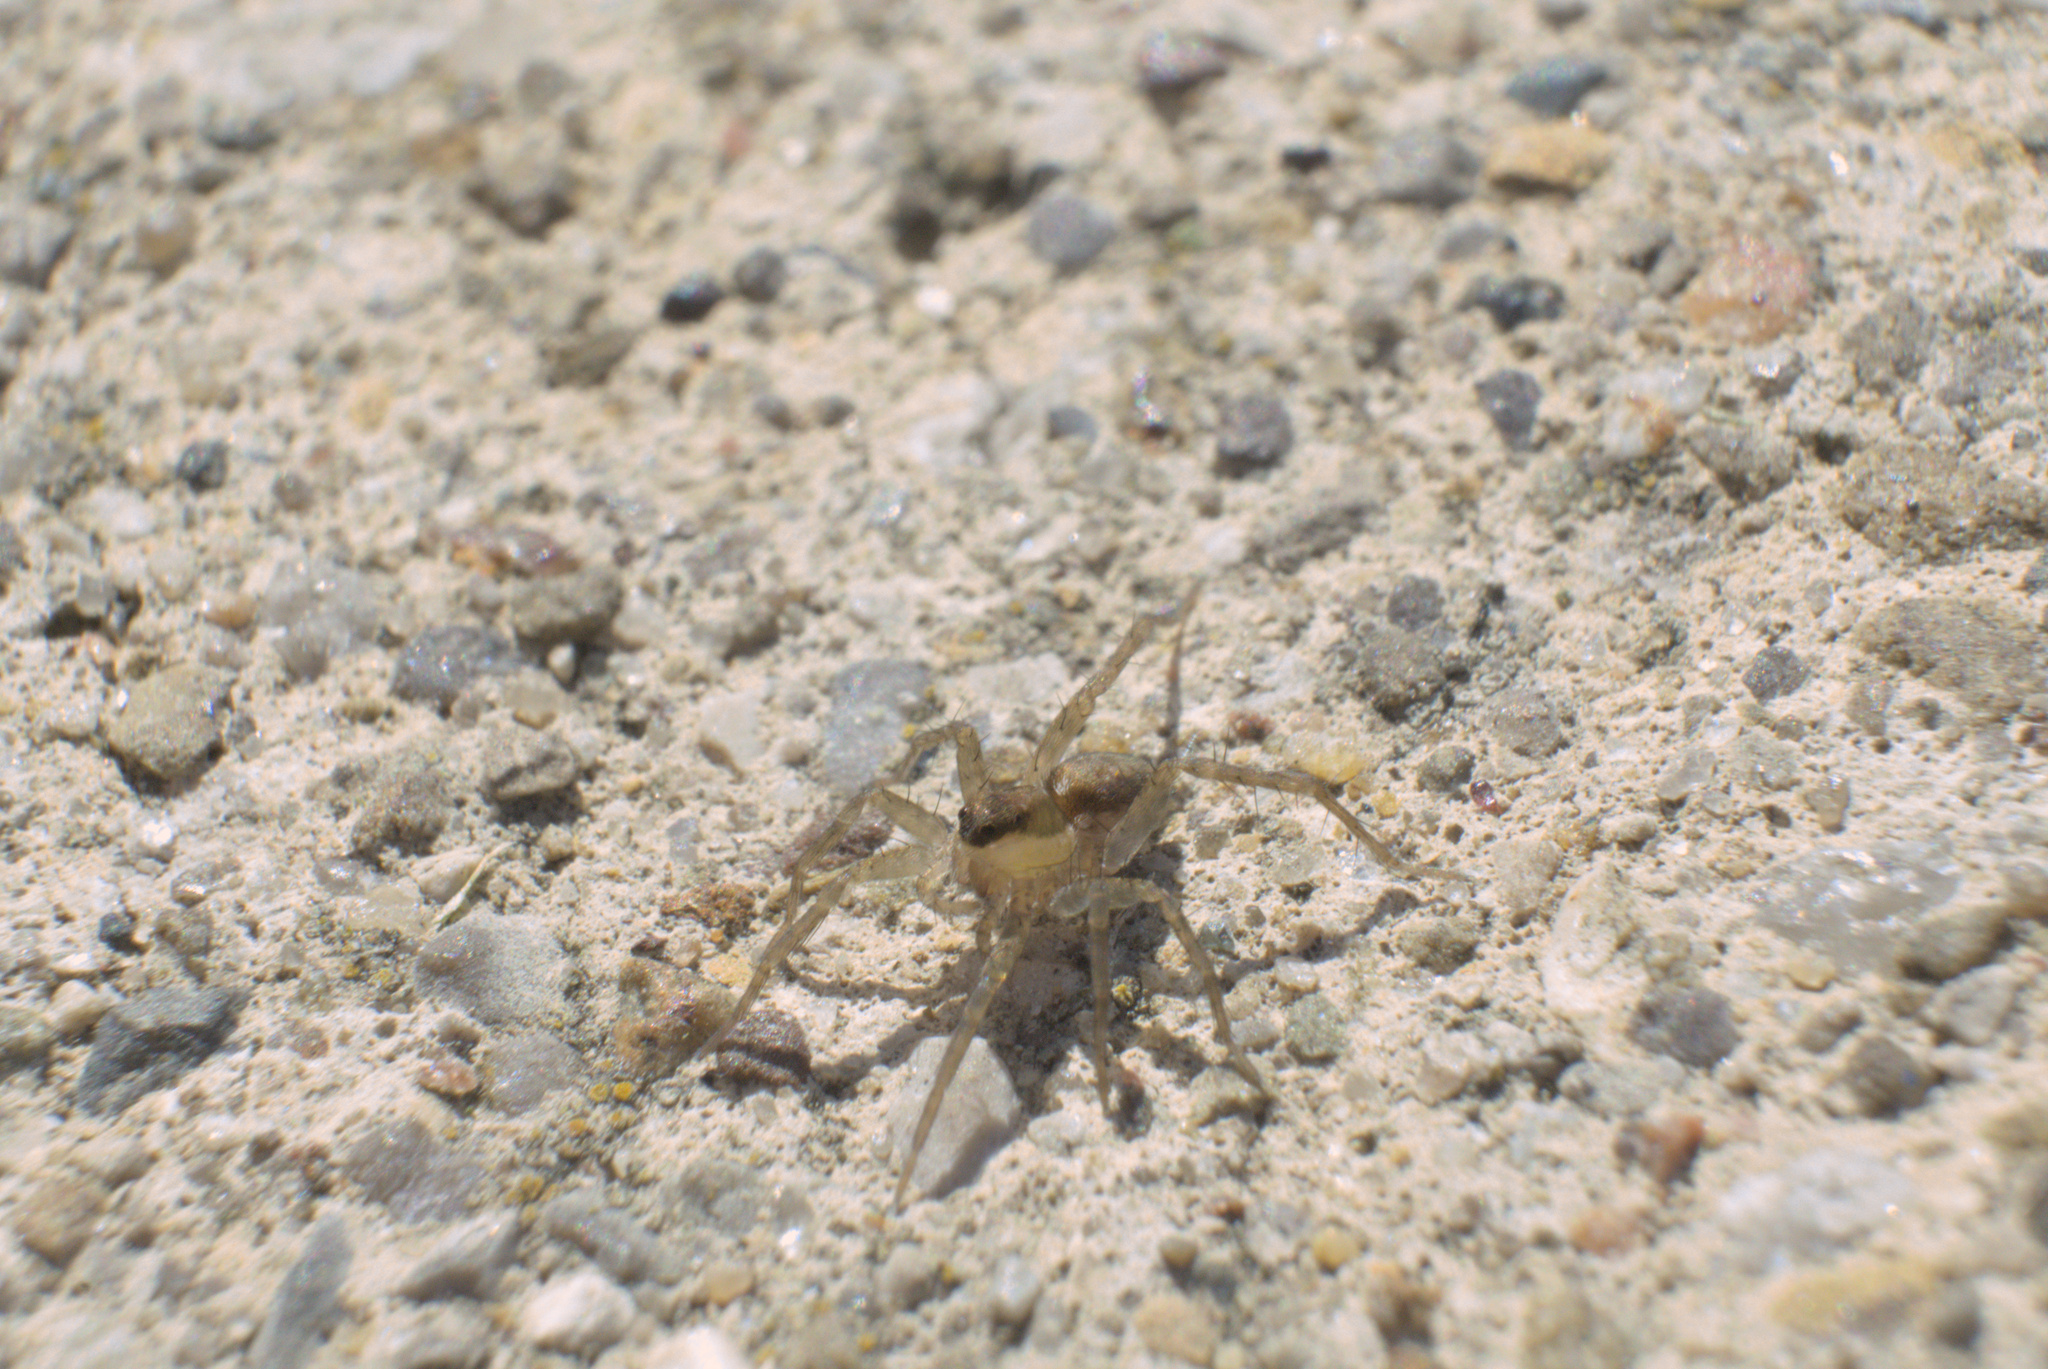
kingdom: Animalia
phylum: Arthropoda
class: Arachnida
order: Araneae
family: Lycosidae
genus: Pardosa
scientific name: Pardosa
